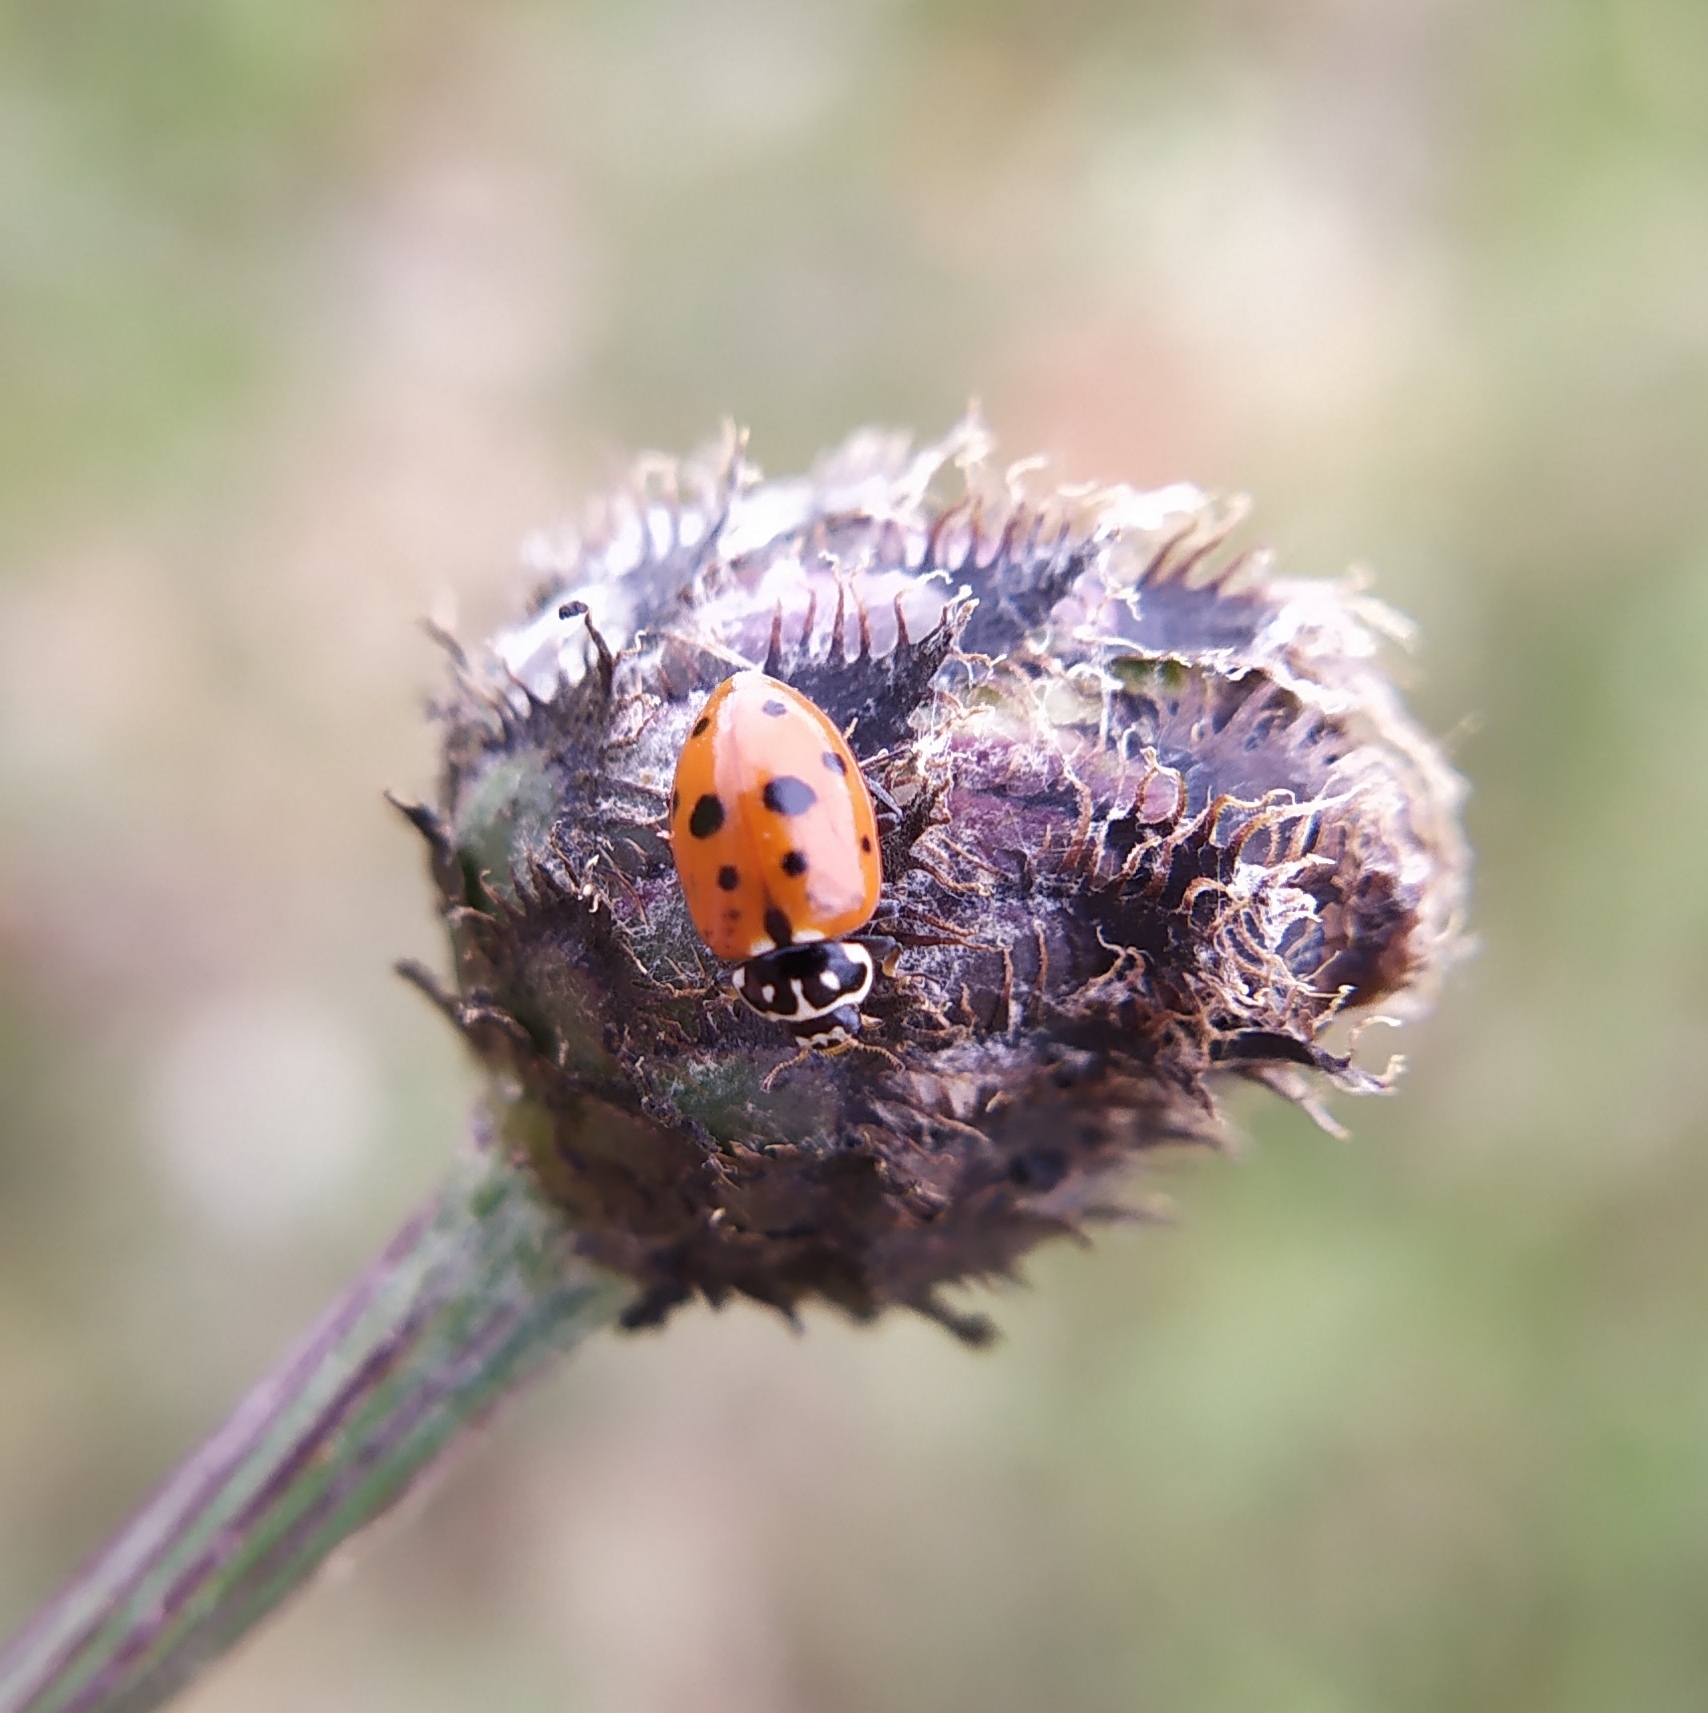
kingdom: Animalia
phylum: Arthropoda
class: Insecta
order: Coleoptera
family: Coccinellidae
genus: Hippodamia
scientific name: Hippodamia variegata
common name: Ladybird beetle
